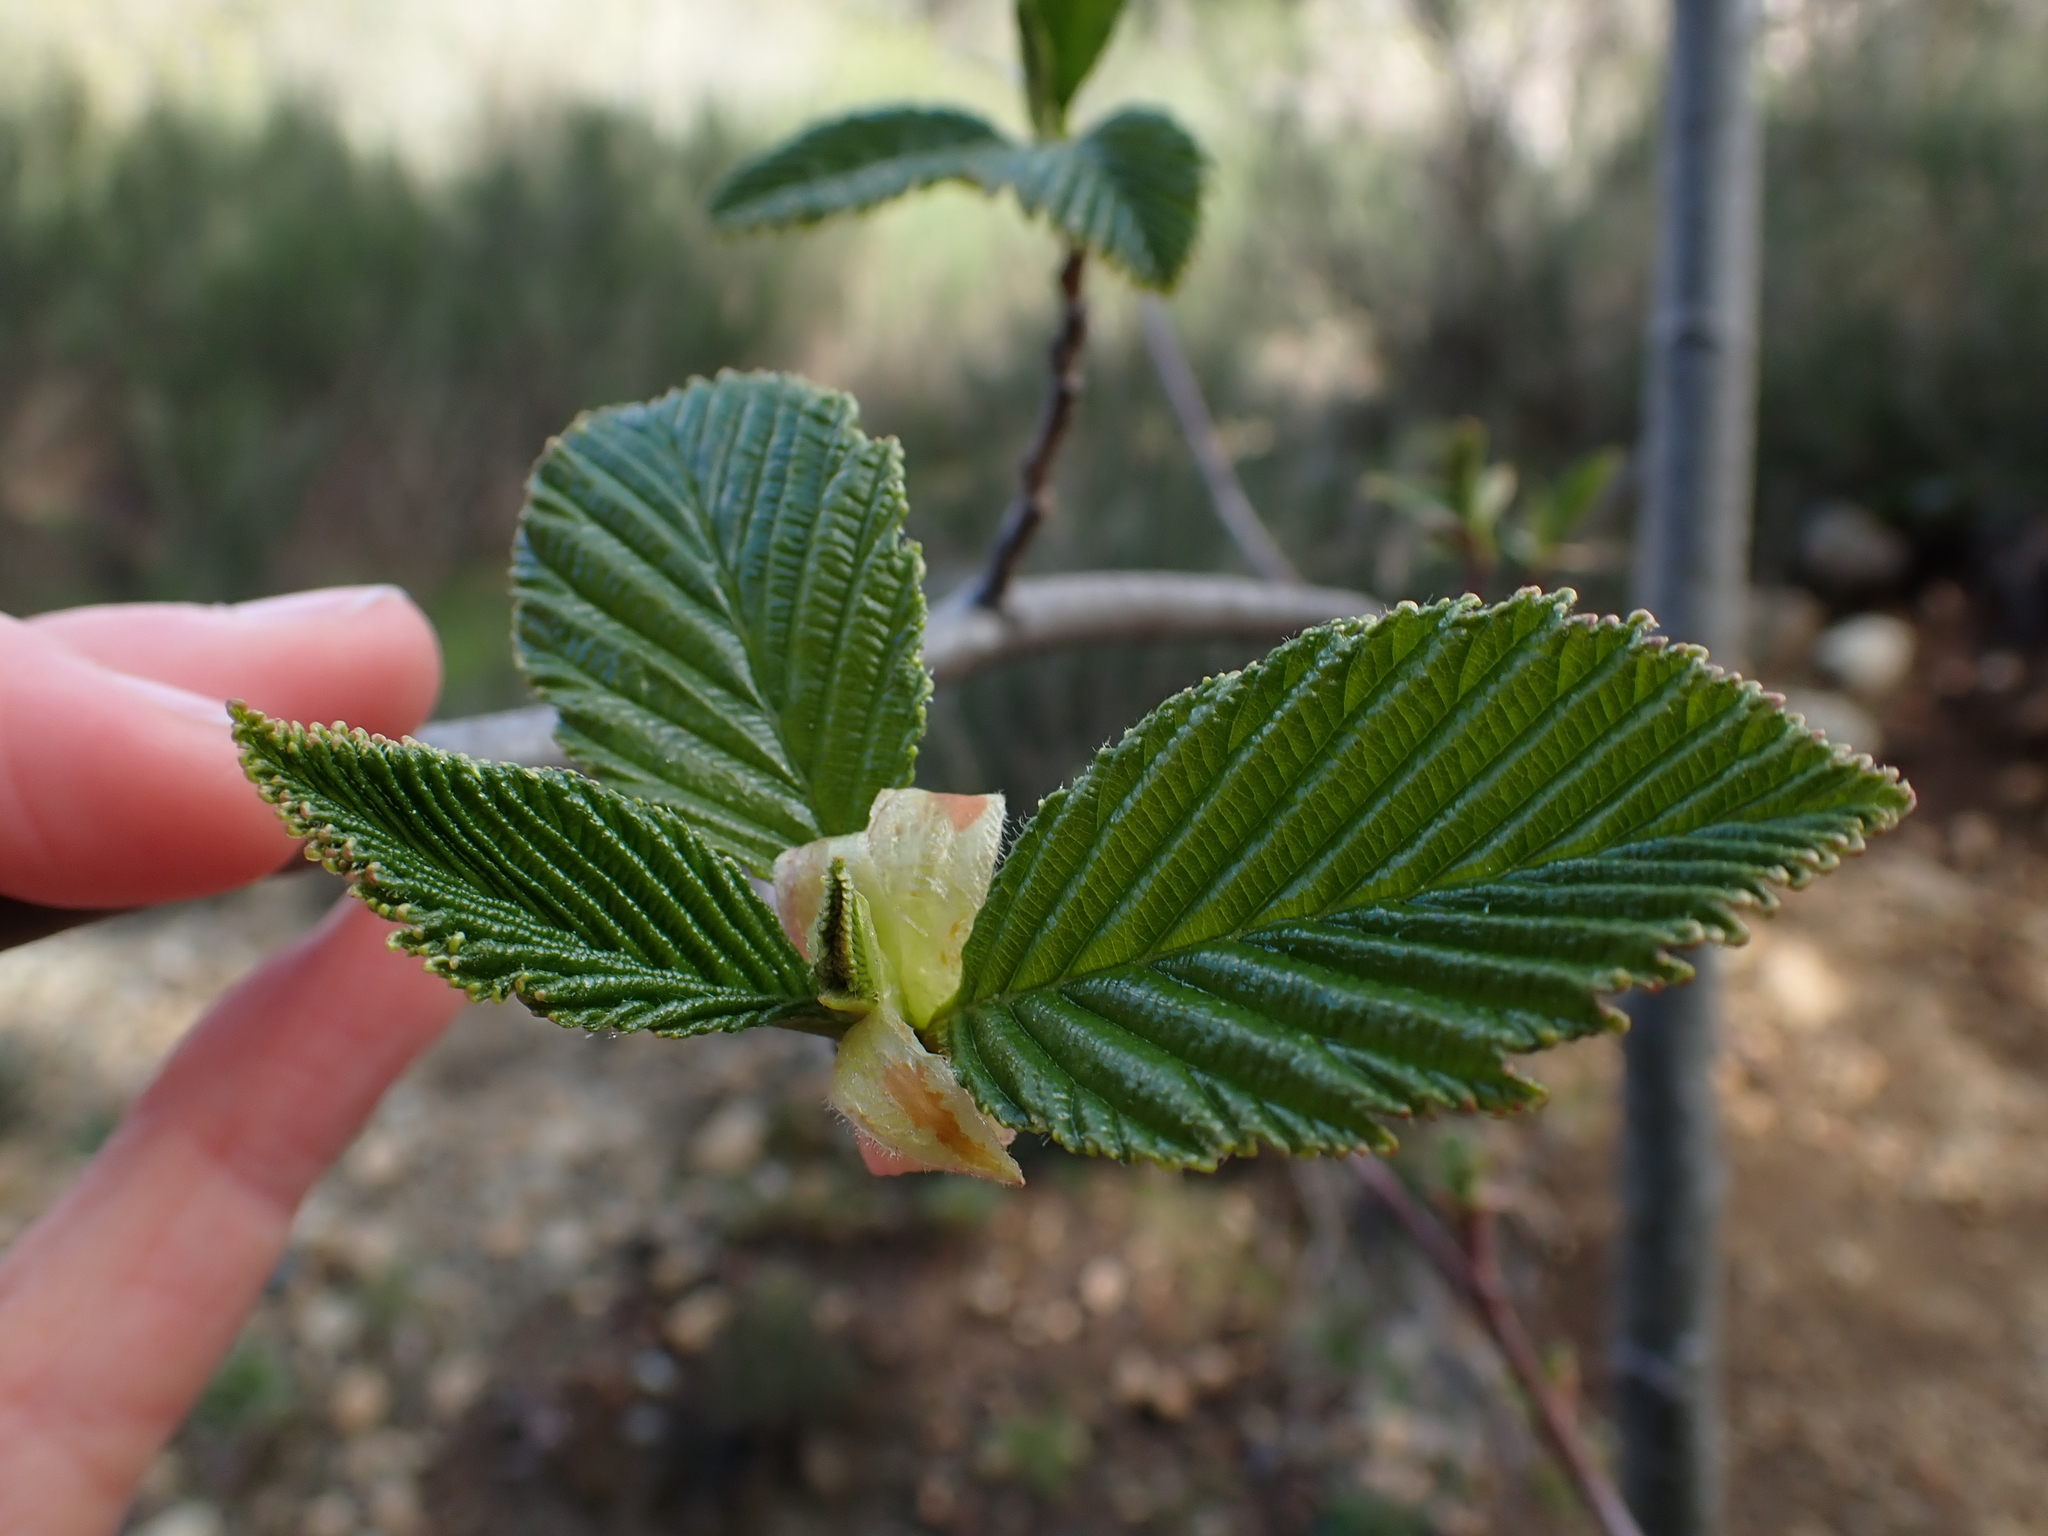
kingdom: Plantae
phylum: Tracheophyta
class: Magnoliopsida
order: Fagales
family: Betulaceae
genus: Alnus
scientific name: Alnus rubra
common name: Red alder
